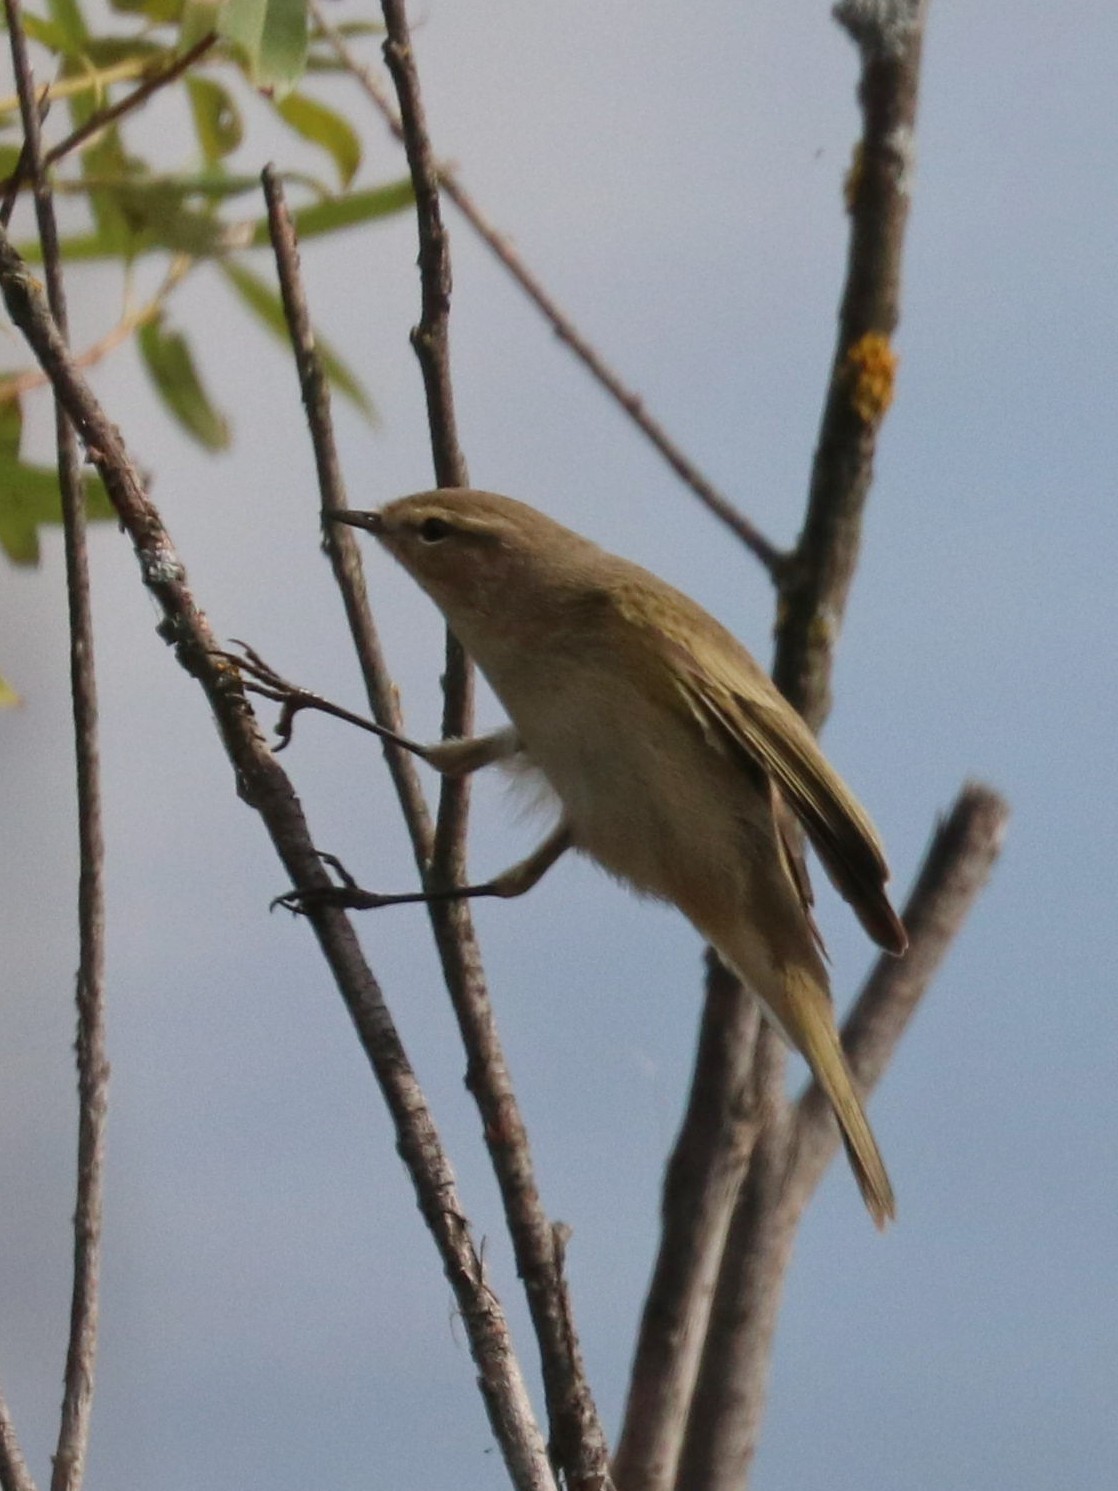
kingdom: Animalia
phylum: Chordata
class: Aves
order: Passeriformes
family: Phylloscopidae
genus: Phylloscopus
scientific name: Phylloscopus collybita
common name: Common chiffchaff
